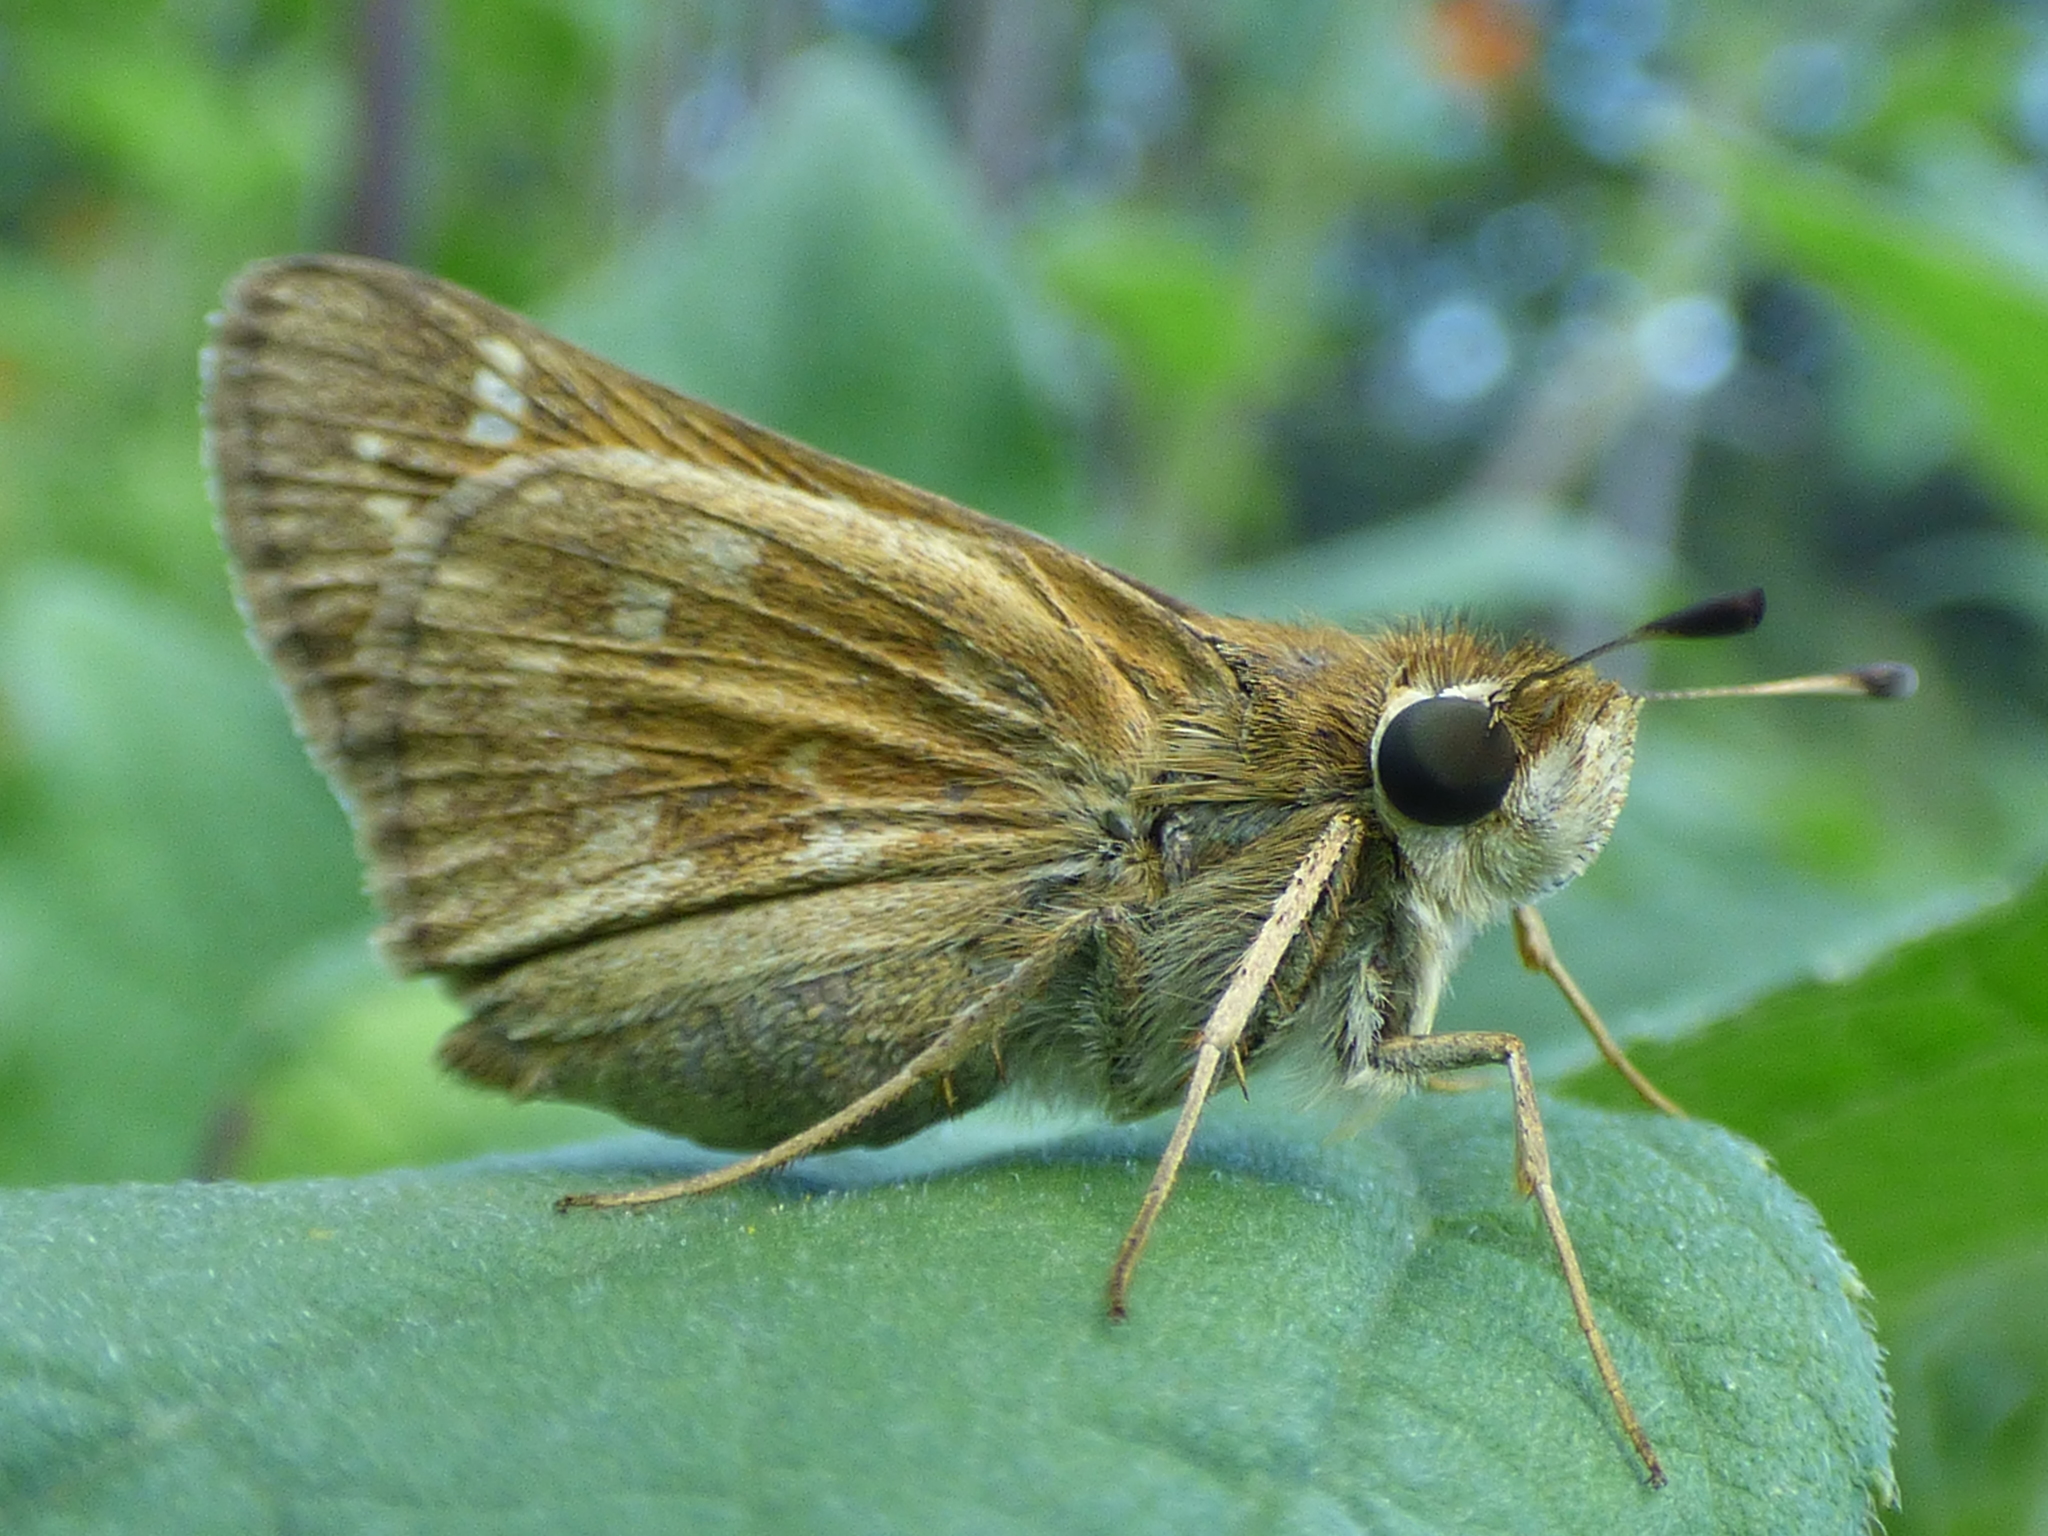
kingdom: Animalia
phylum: Arthropoda
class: Insecta
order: Lepidoptera
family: Hesperiidae
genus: Atalopedes
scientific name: Atalopedes
